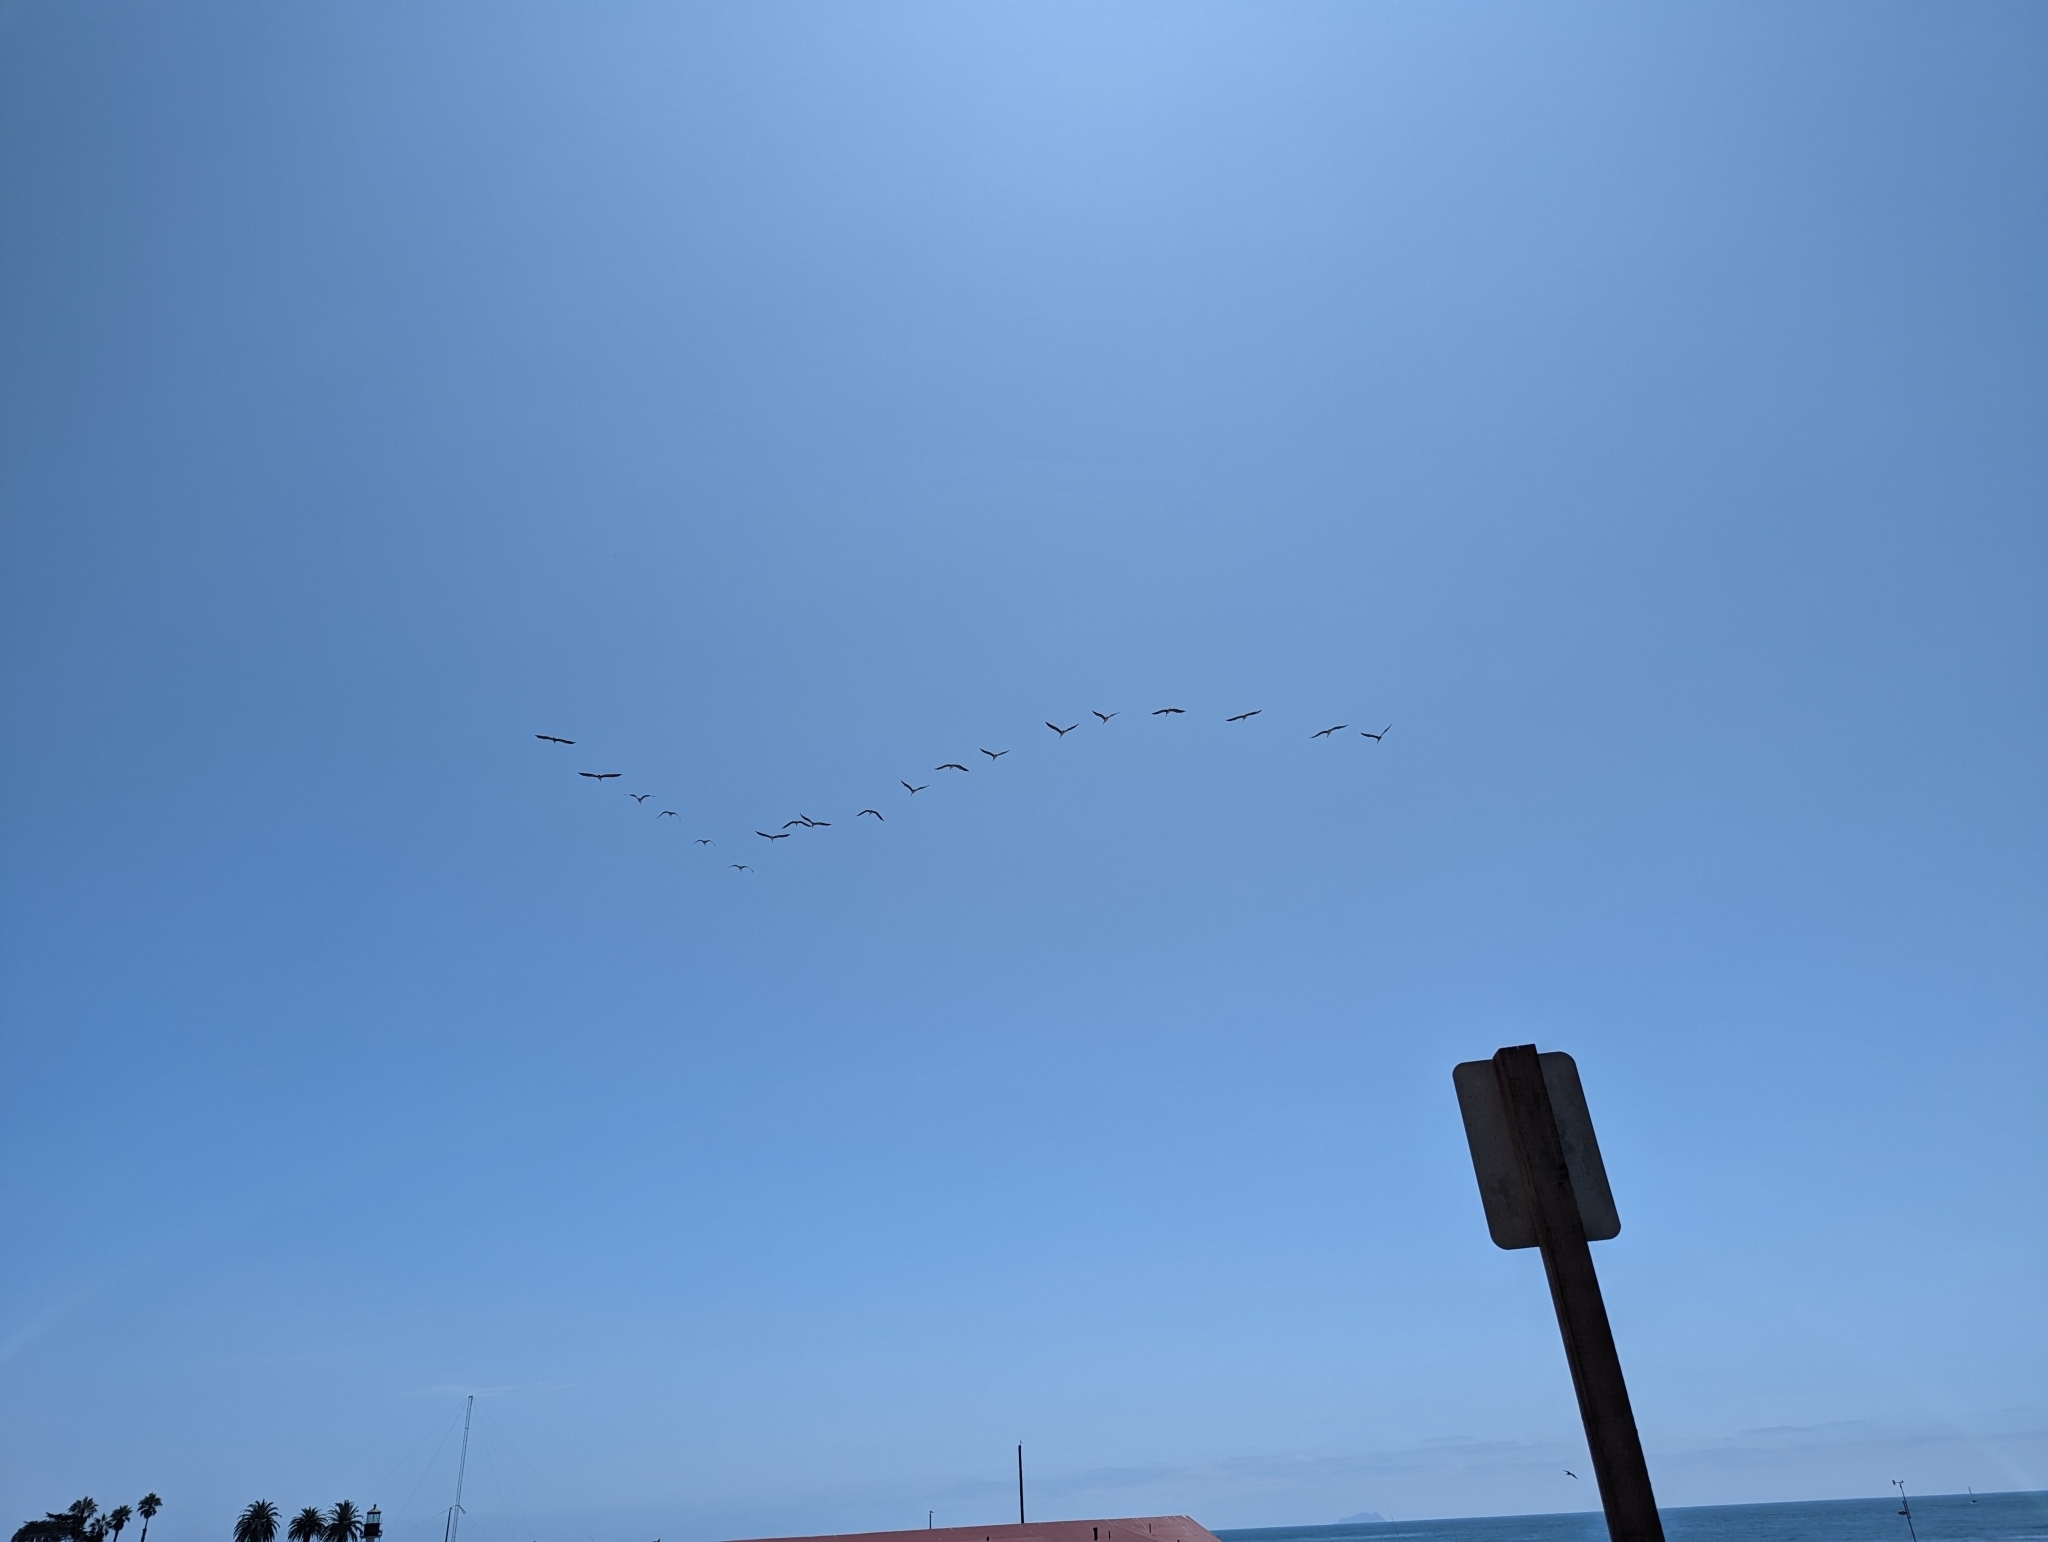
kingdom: Animalia
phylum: Chordata
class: Aves
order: Pelecaniformes
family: Pelecanidae
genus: Pelecanus
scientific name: Pelecanus occidentalis
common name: Brown pelican
